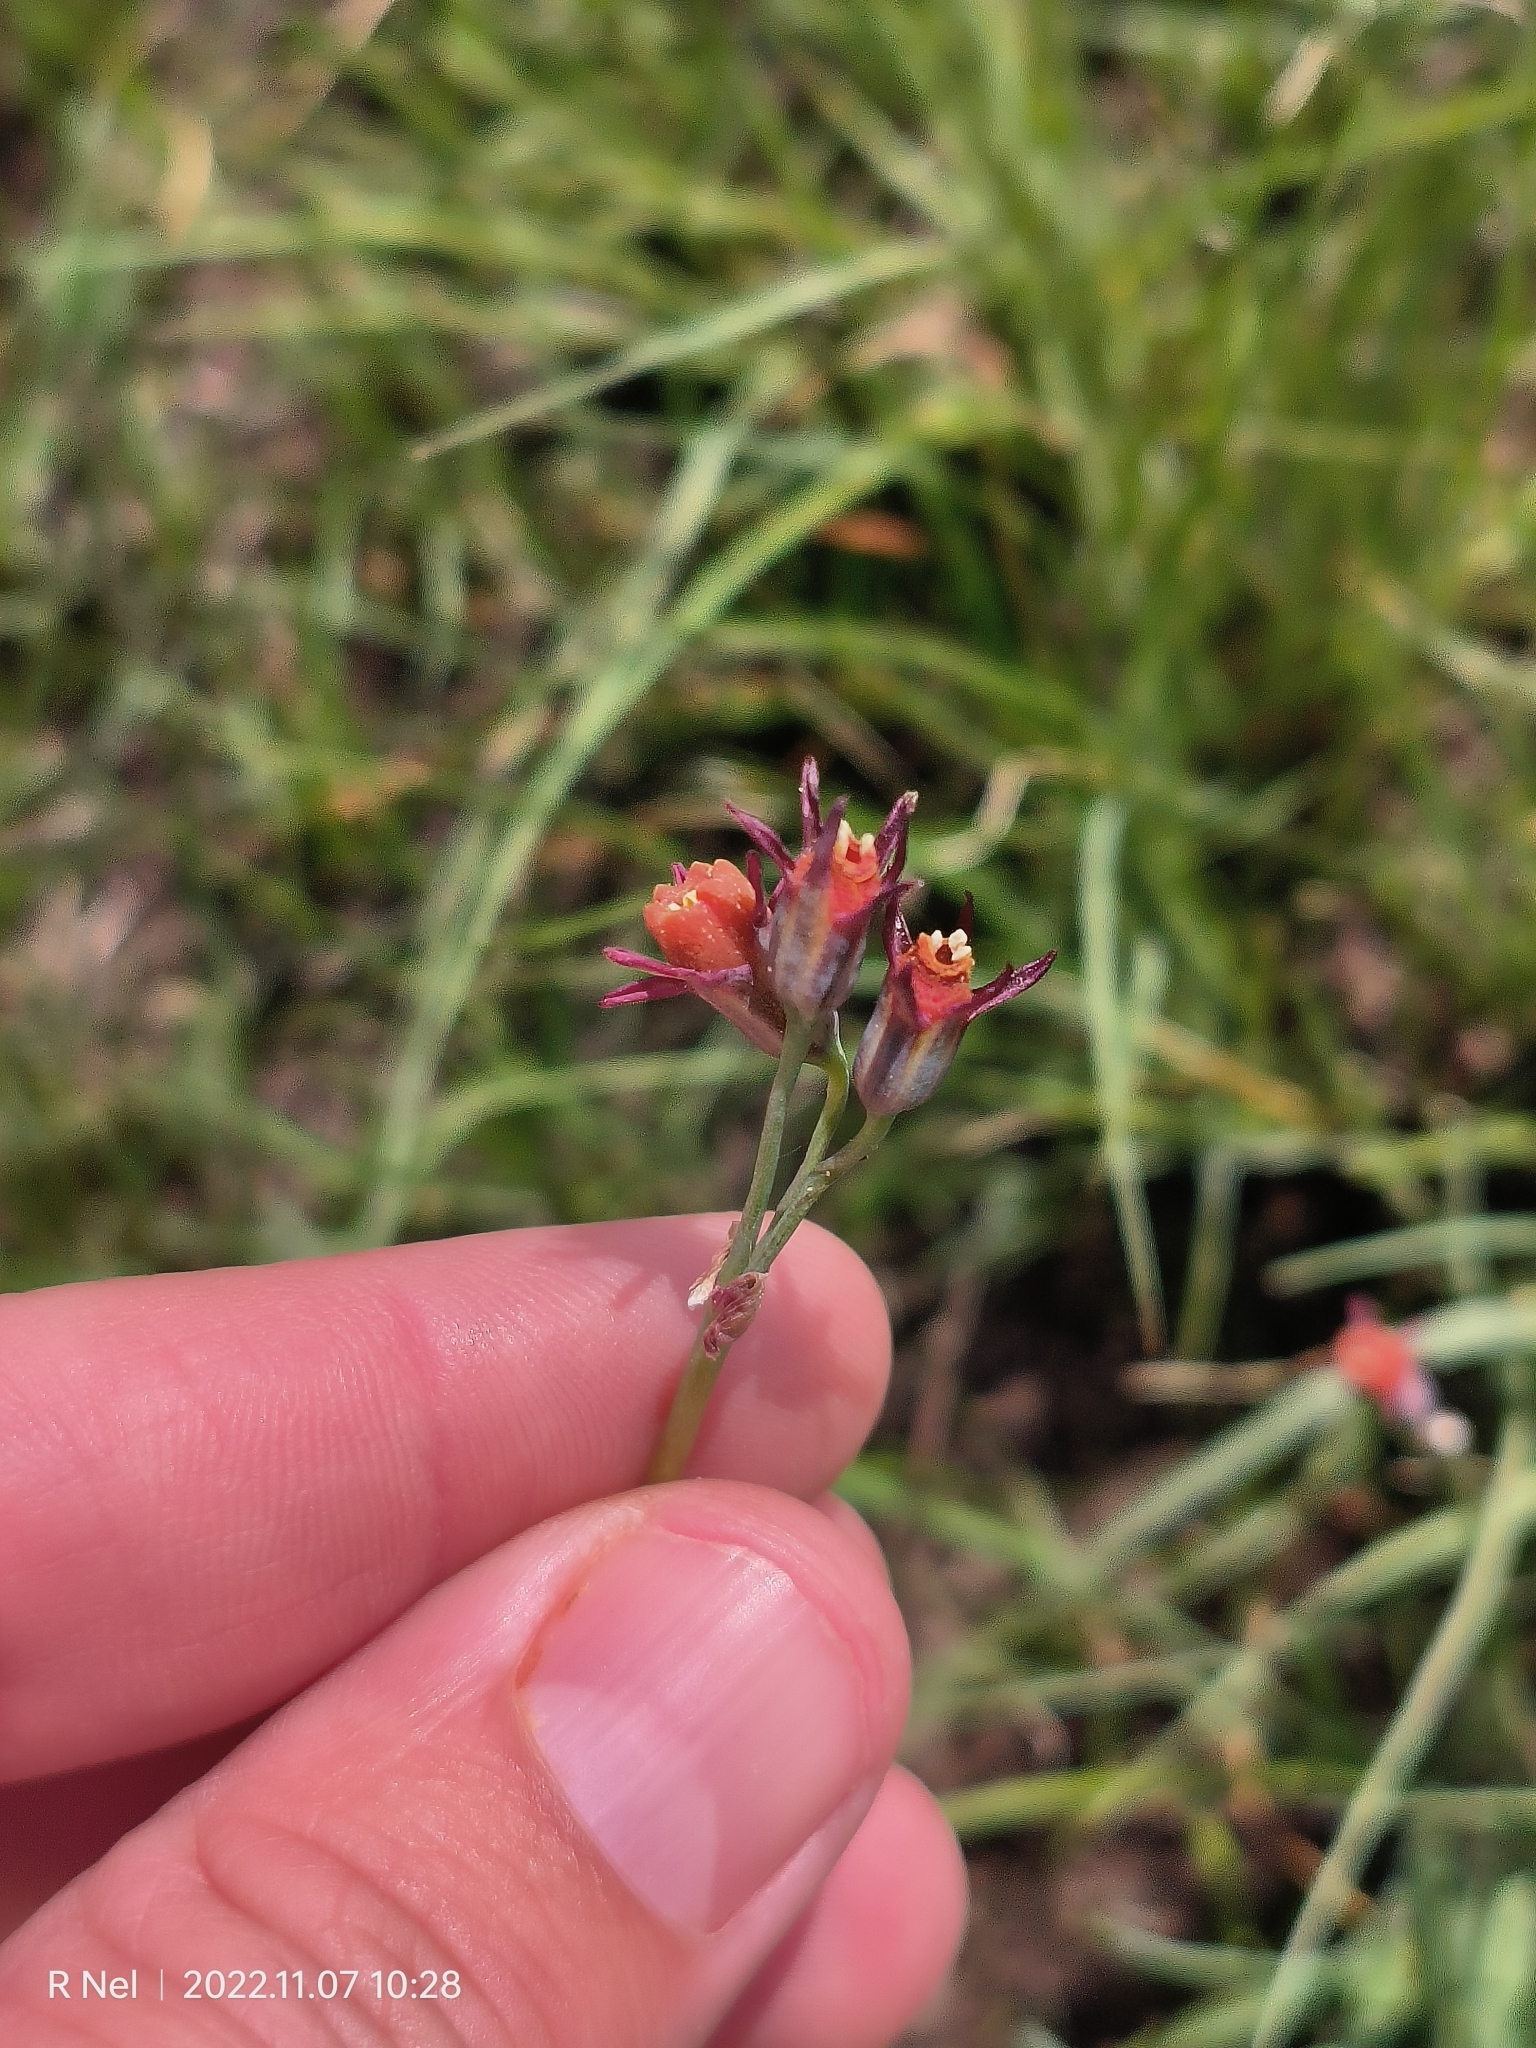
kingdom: Plantae
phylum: Tracheophyta
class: Liliopsida
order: Asparagales
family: Amaryllidaceae
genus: Tulbaghia
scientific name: Tulbaghia acutiloba
